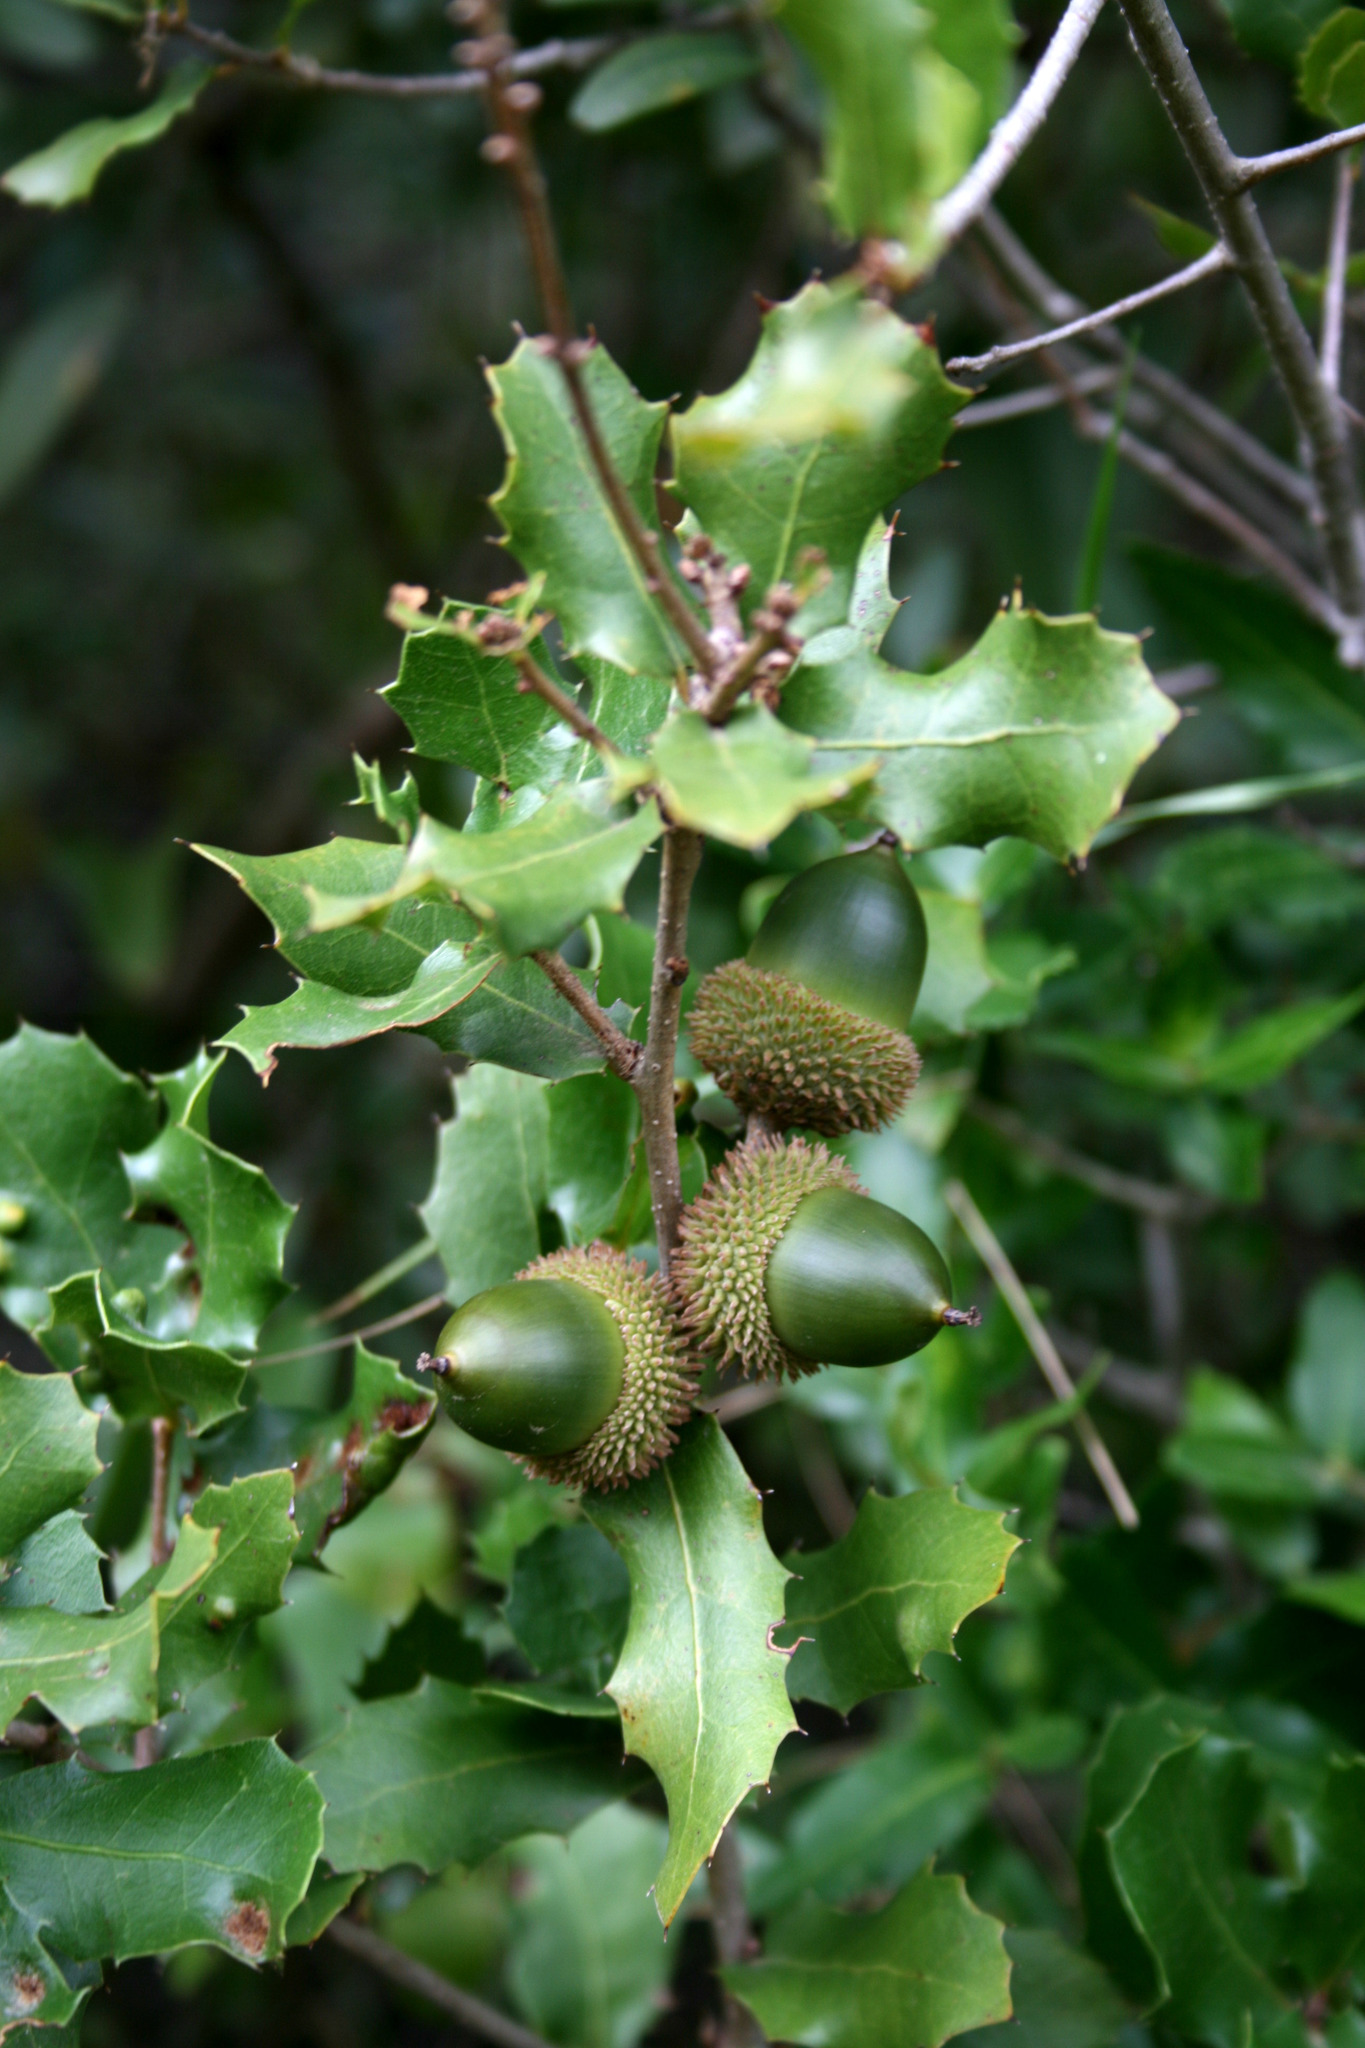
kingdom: Plantae
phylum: Tracheophyta
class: Magnoliopsida
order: Fagales
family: Fagaceae
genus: Quercus
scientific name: Quercus coccifera
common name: Kermes oak
